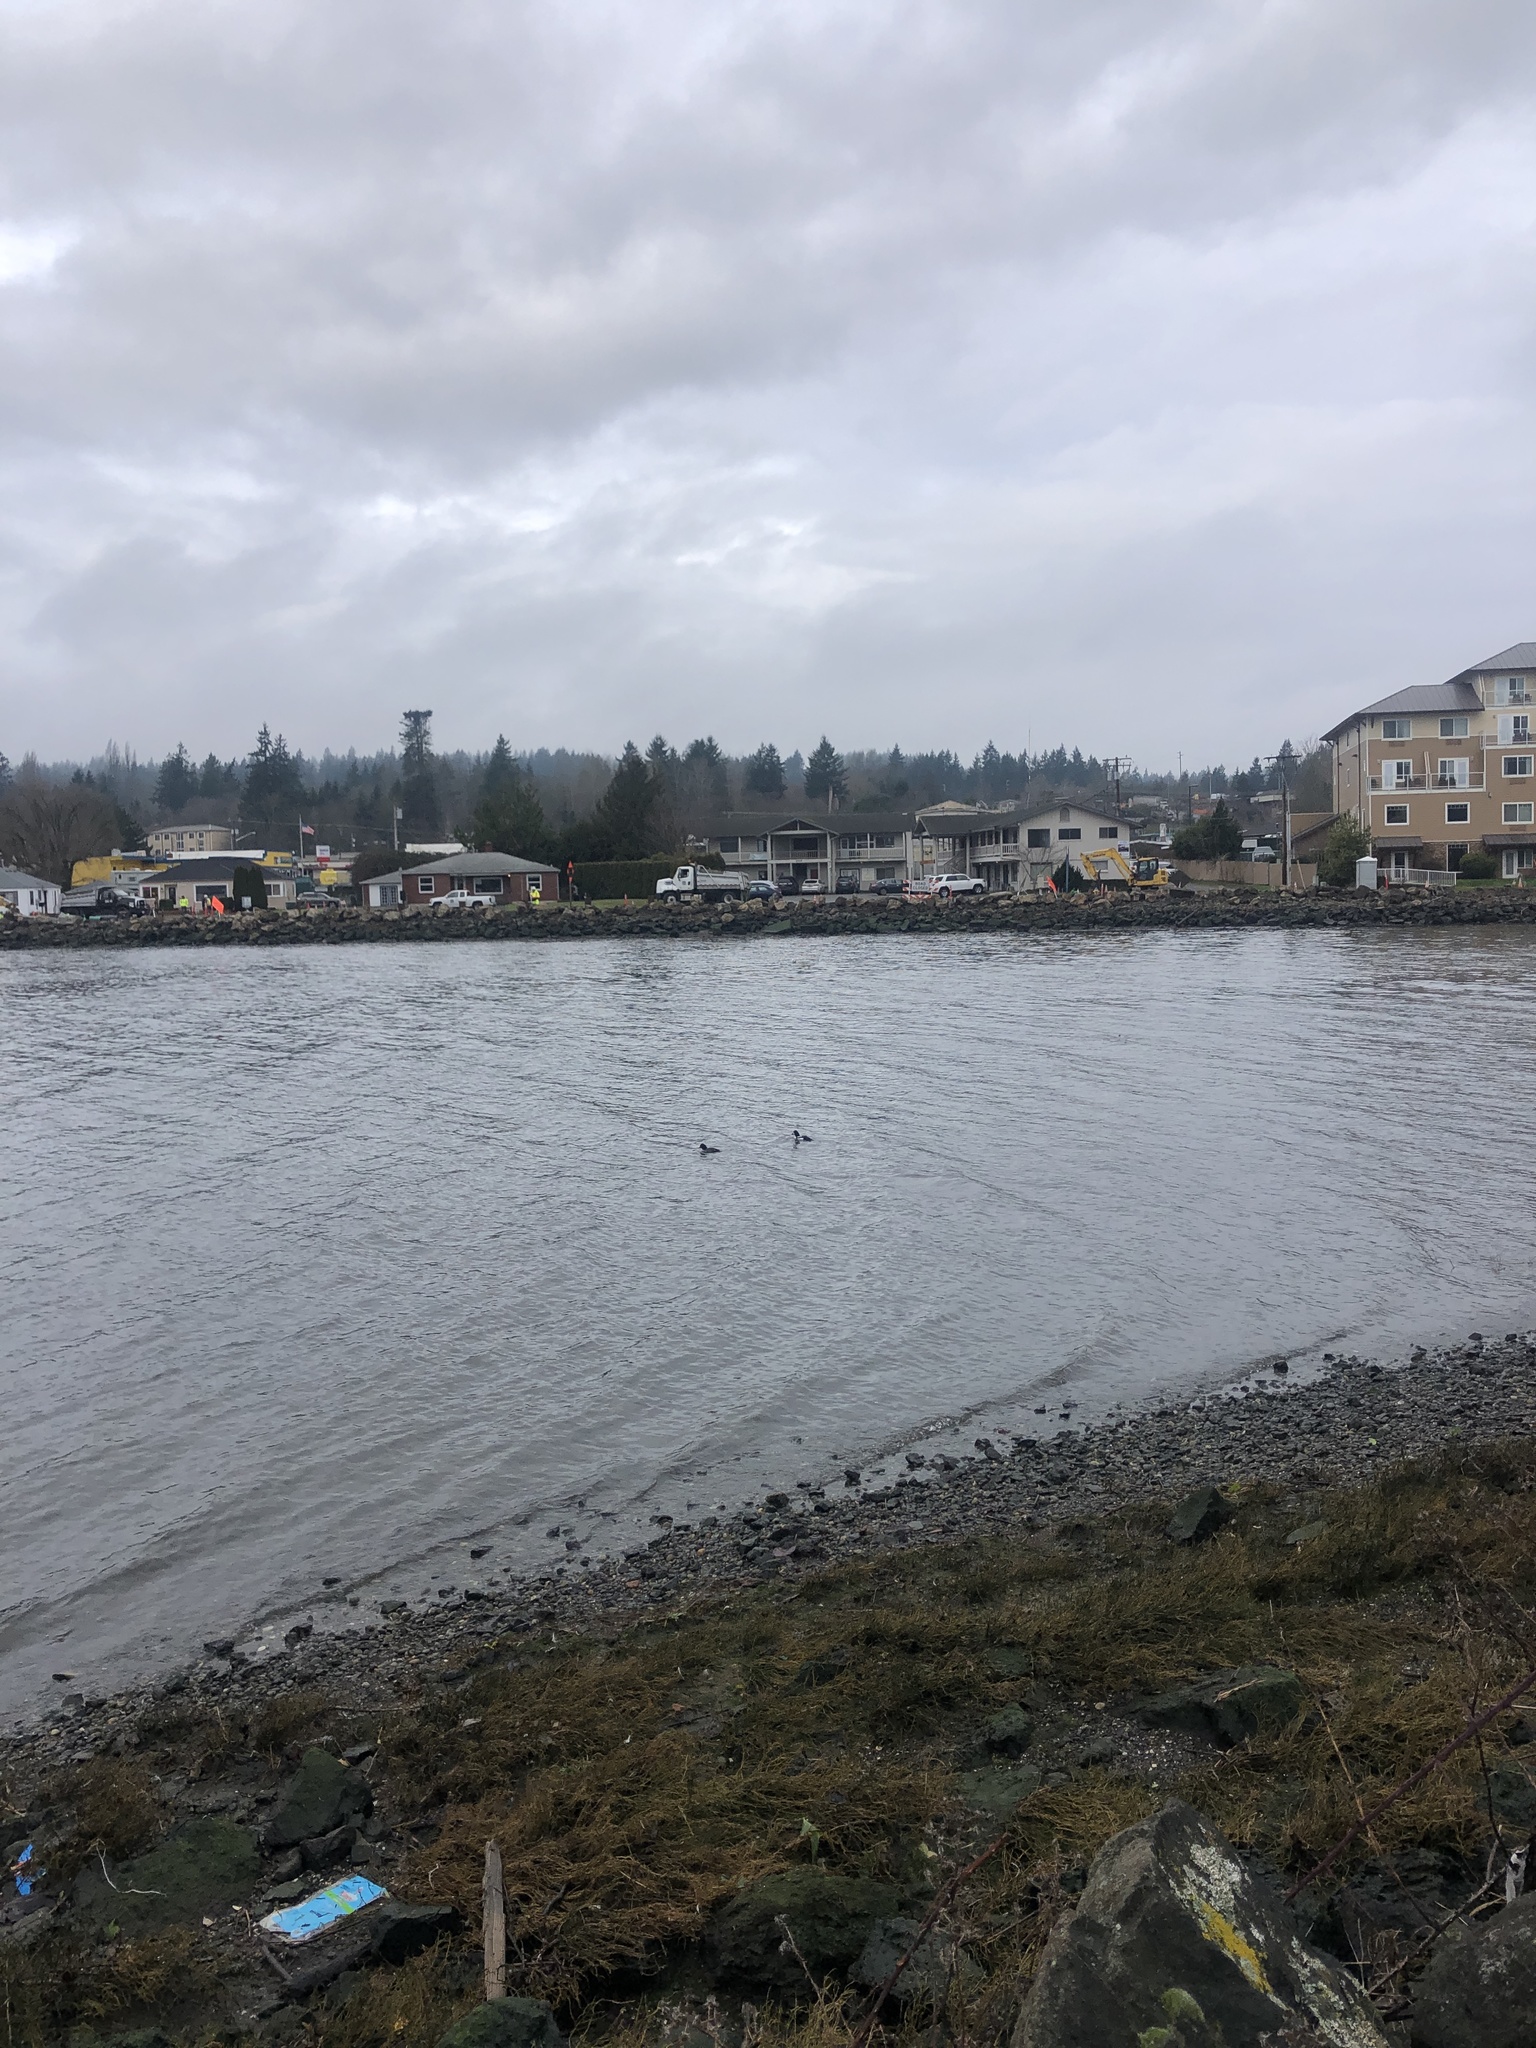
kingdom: Animalia
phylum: Chordata
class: Aves
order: Anseriformes
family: Anatidae
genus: Bucephala
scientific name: Bucephala islandica
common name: Barrow's goldeneye
